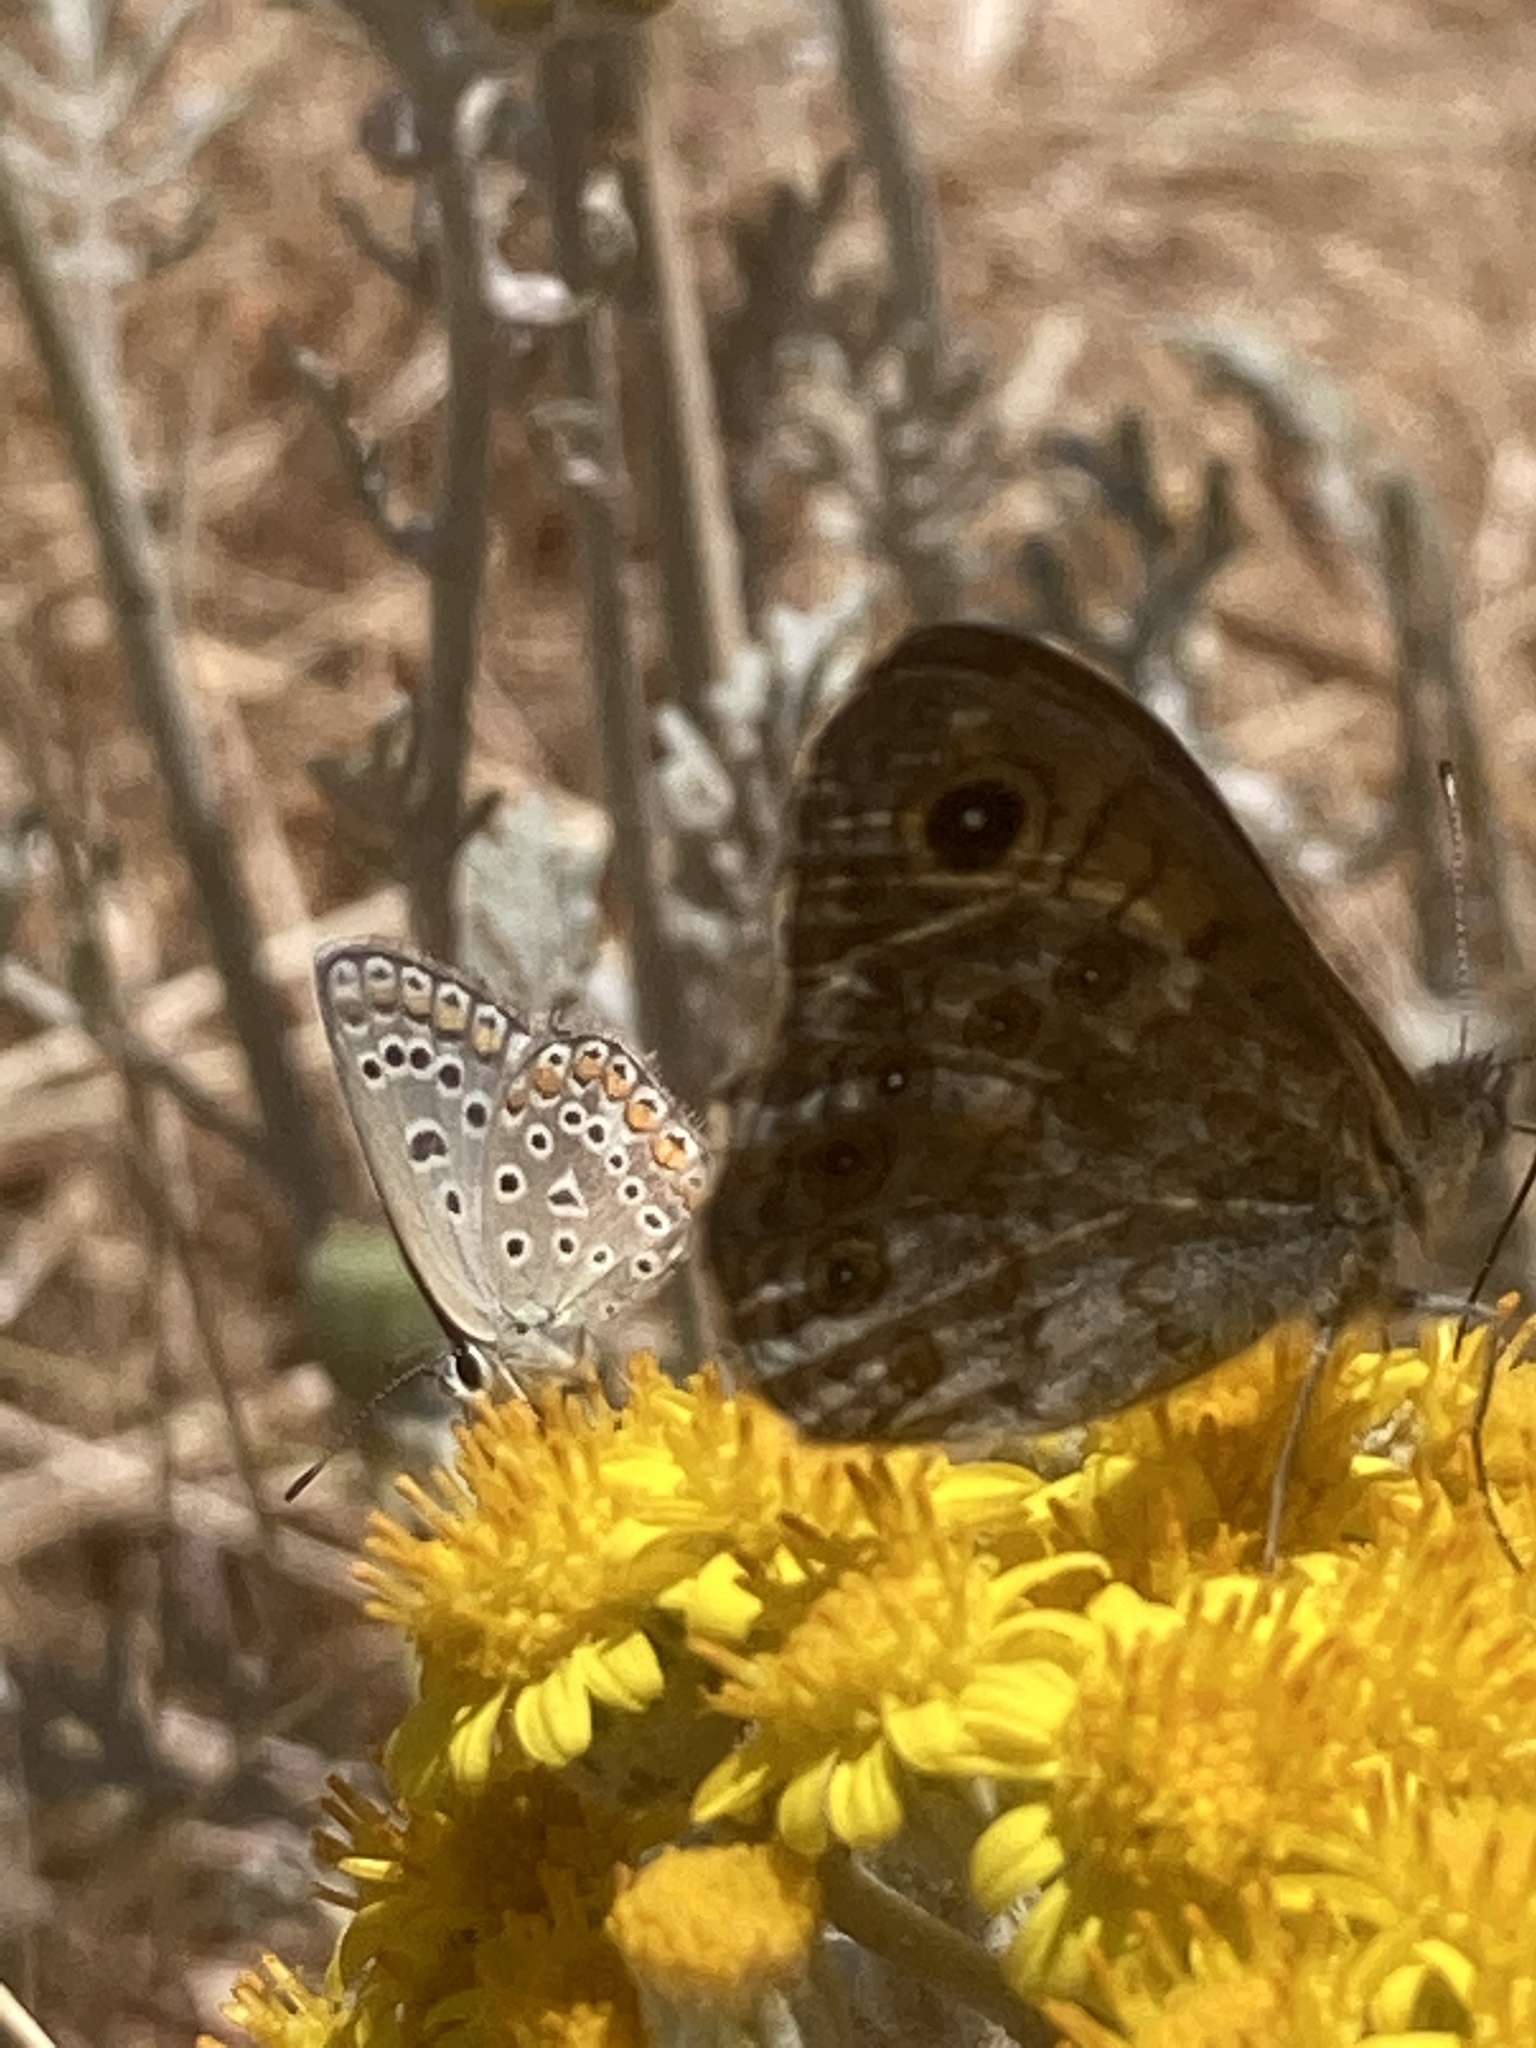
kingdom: Animalia
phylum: Arthropoda
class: Insecta
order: Lepidoptera
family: Lycaenidae
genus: Polyommatus
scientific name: Polyommatus icarus
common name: Common blue
